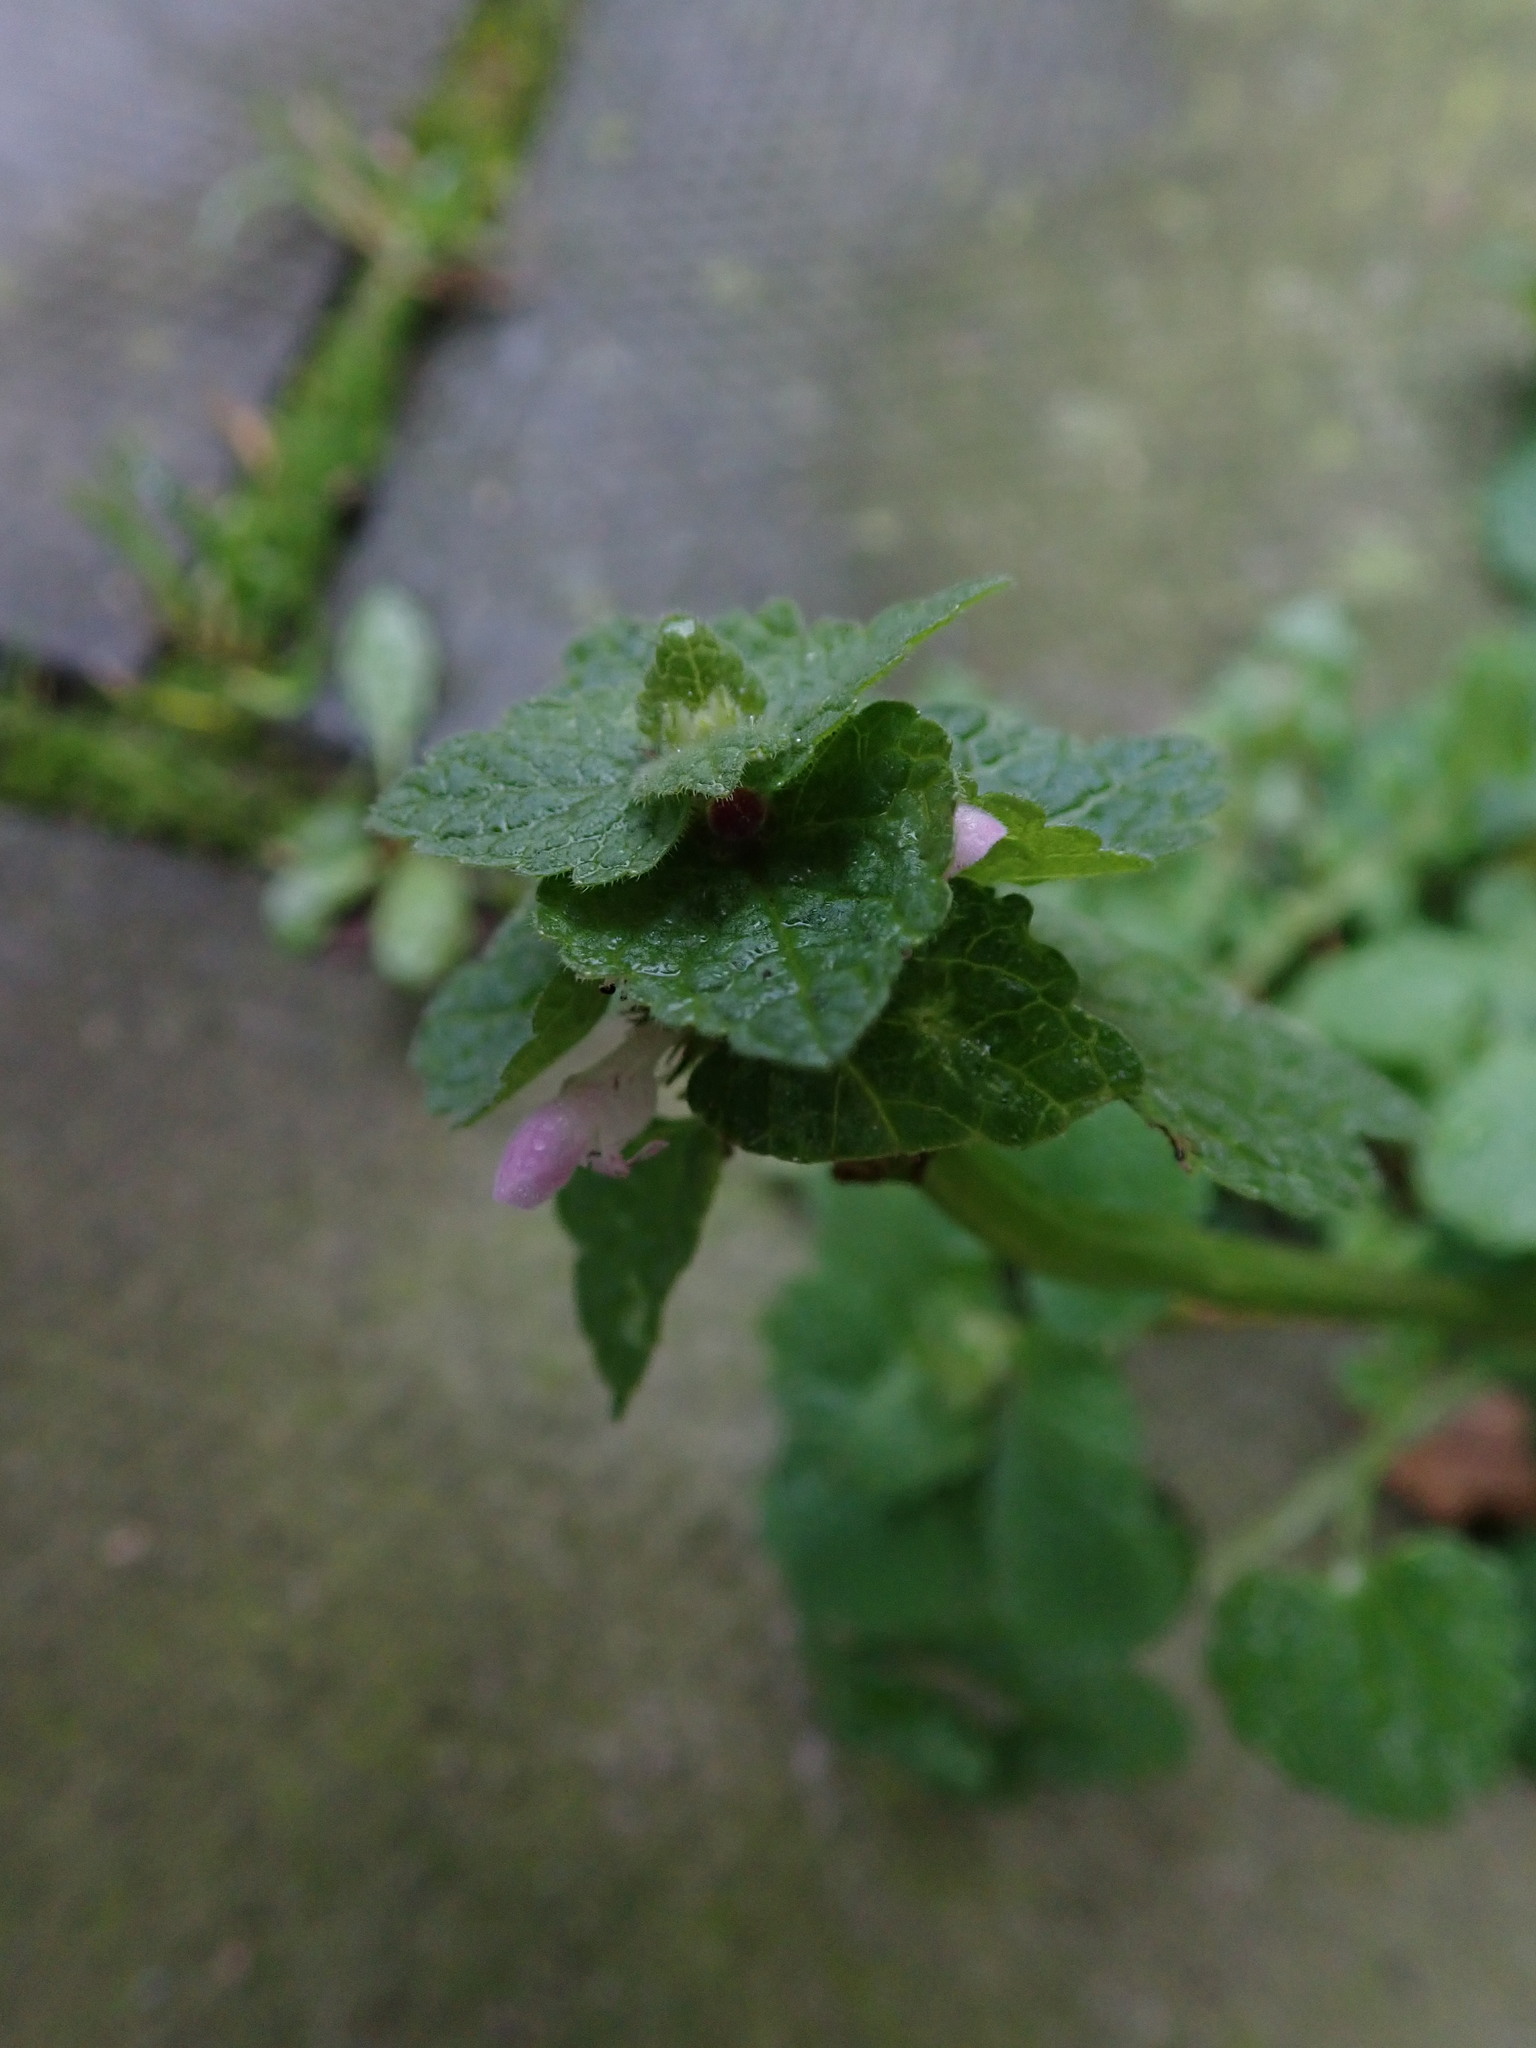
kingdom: Plantae
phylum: Tracheophyta
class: Magnoliopsida
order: Lamiales
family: Lamiaceae
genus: Lamium
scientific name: Lamium purpureum
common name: Red dead-nettle
